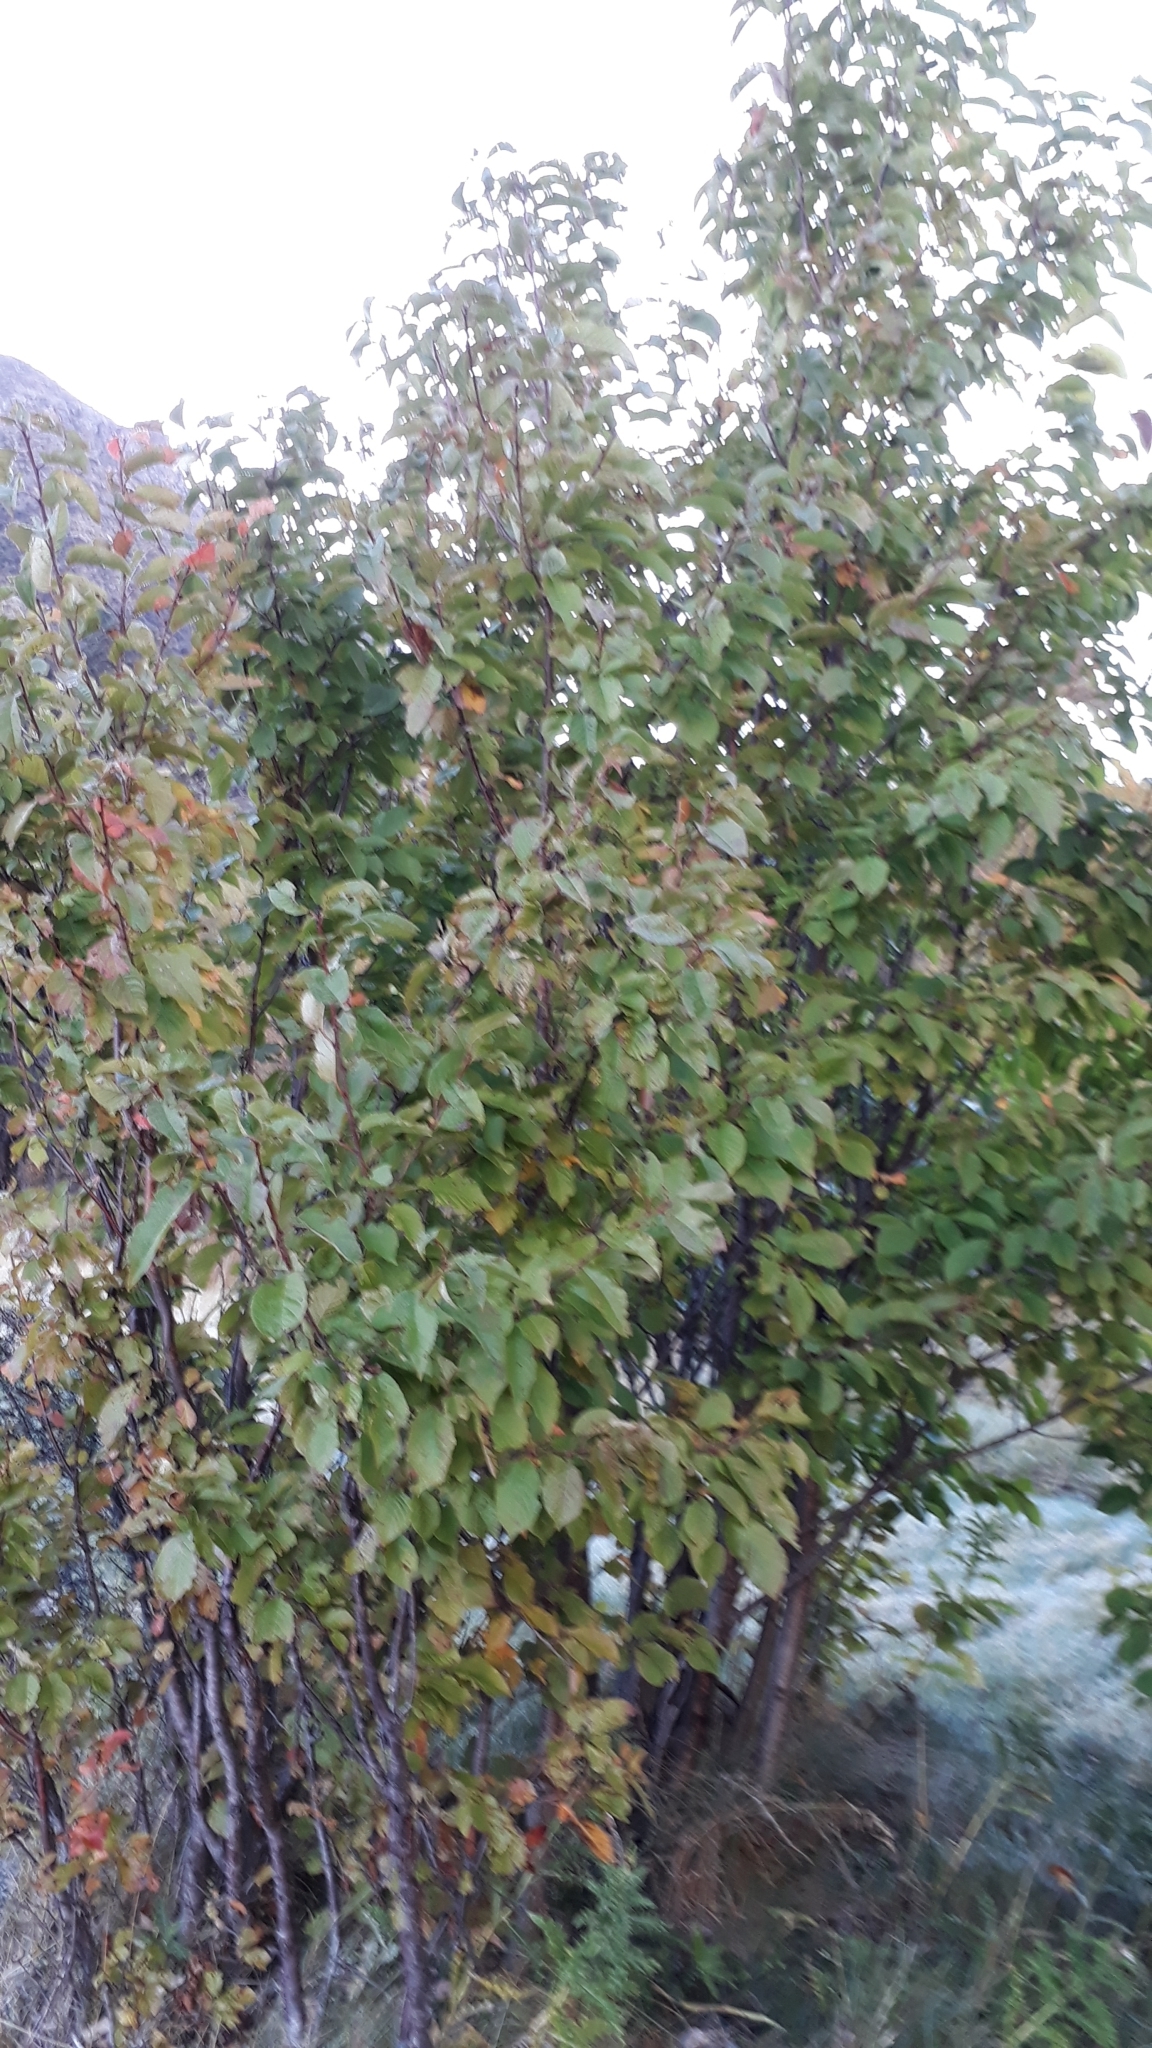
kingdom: Plantae
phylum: Tracheophyta
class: Magnoliopsida
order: Malpighiales
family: Salicaceae
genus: Salix
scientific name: Salix cinerea
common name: Common sallow
